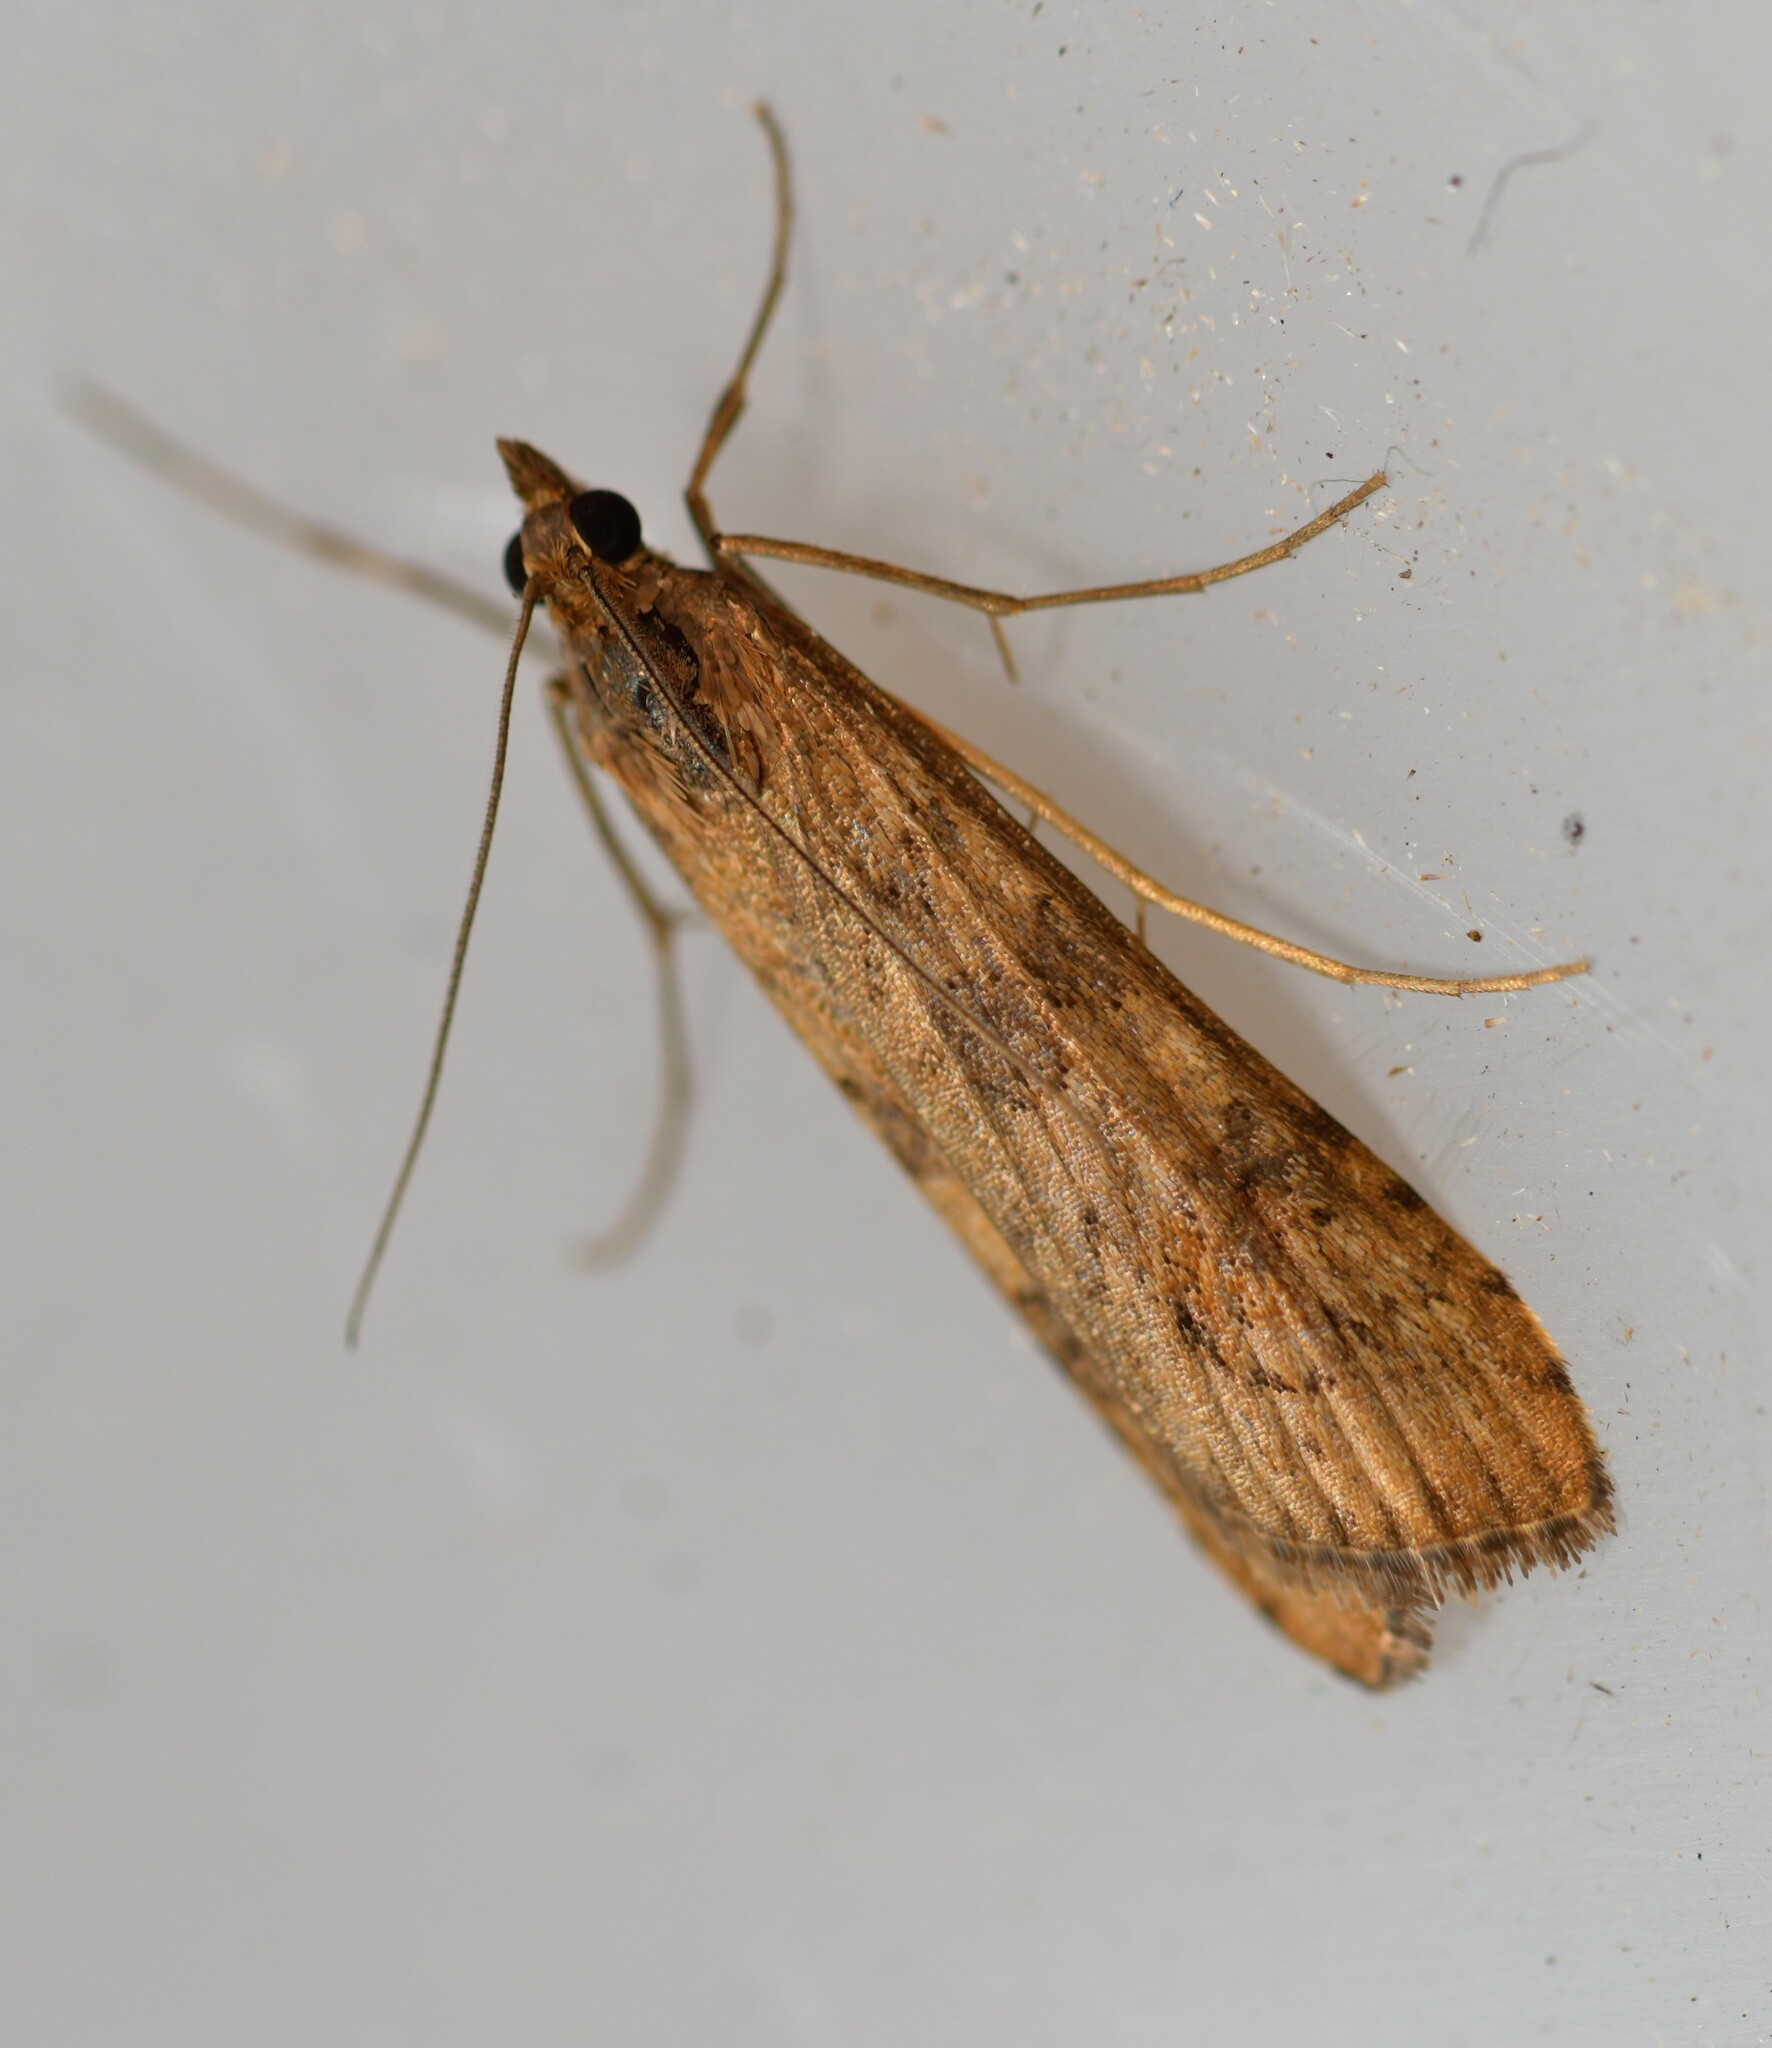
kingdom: Animalia
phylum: Arthropoda
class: Insecta
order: Lepidoptera
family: Crambidae
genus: Nomophila
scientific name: Nomophila noctuella
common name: Rush veneer
